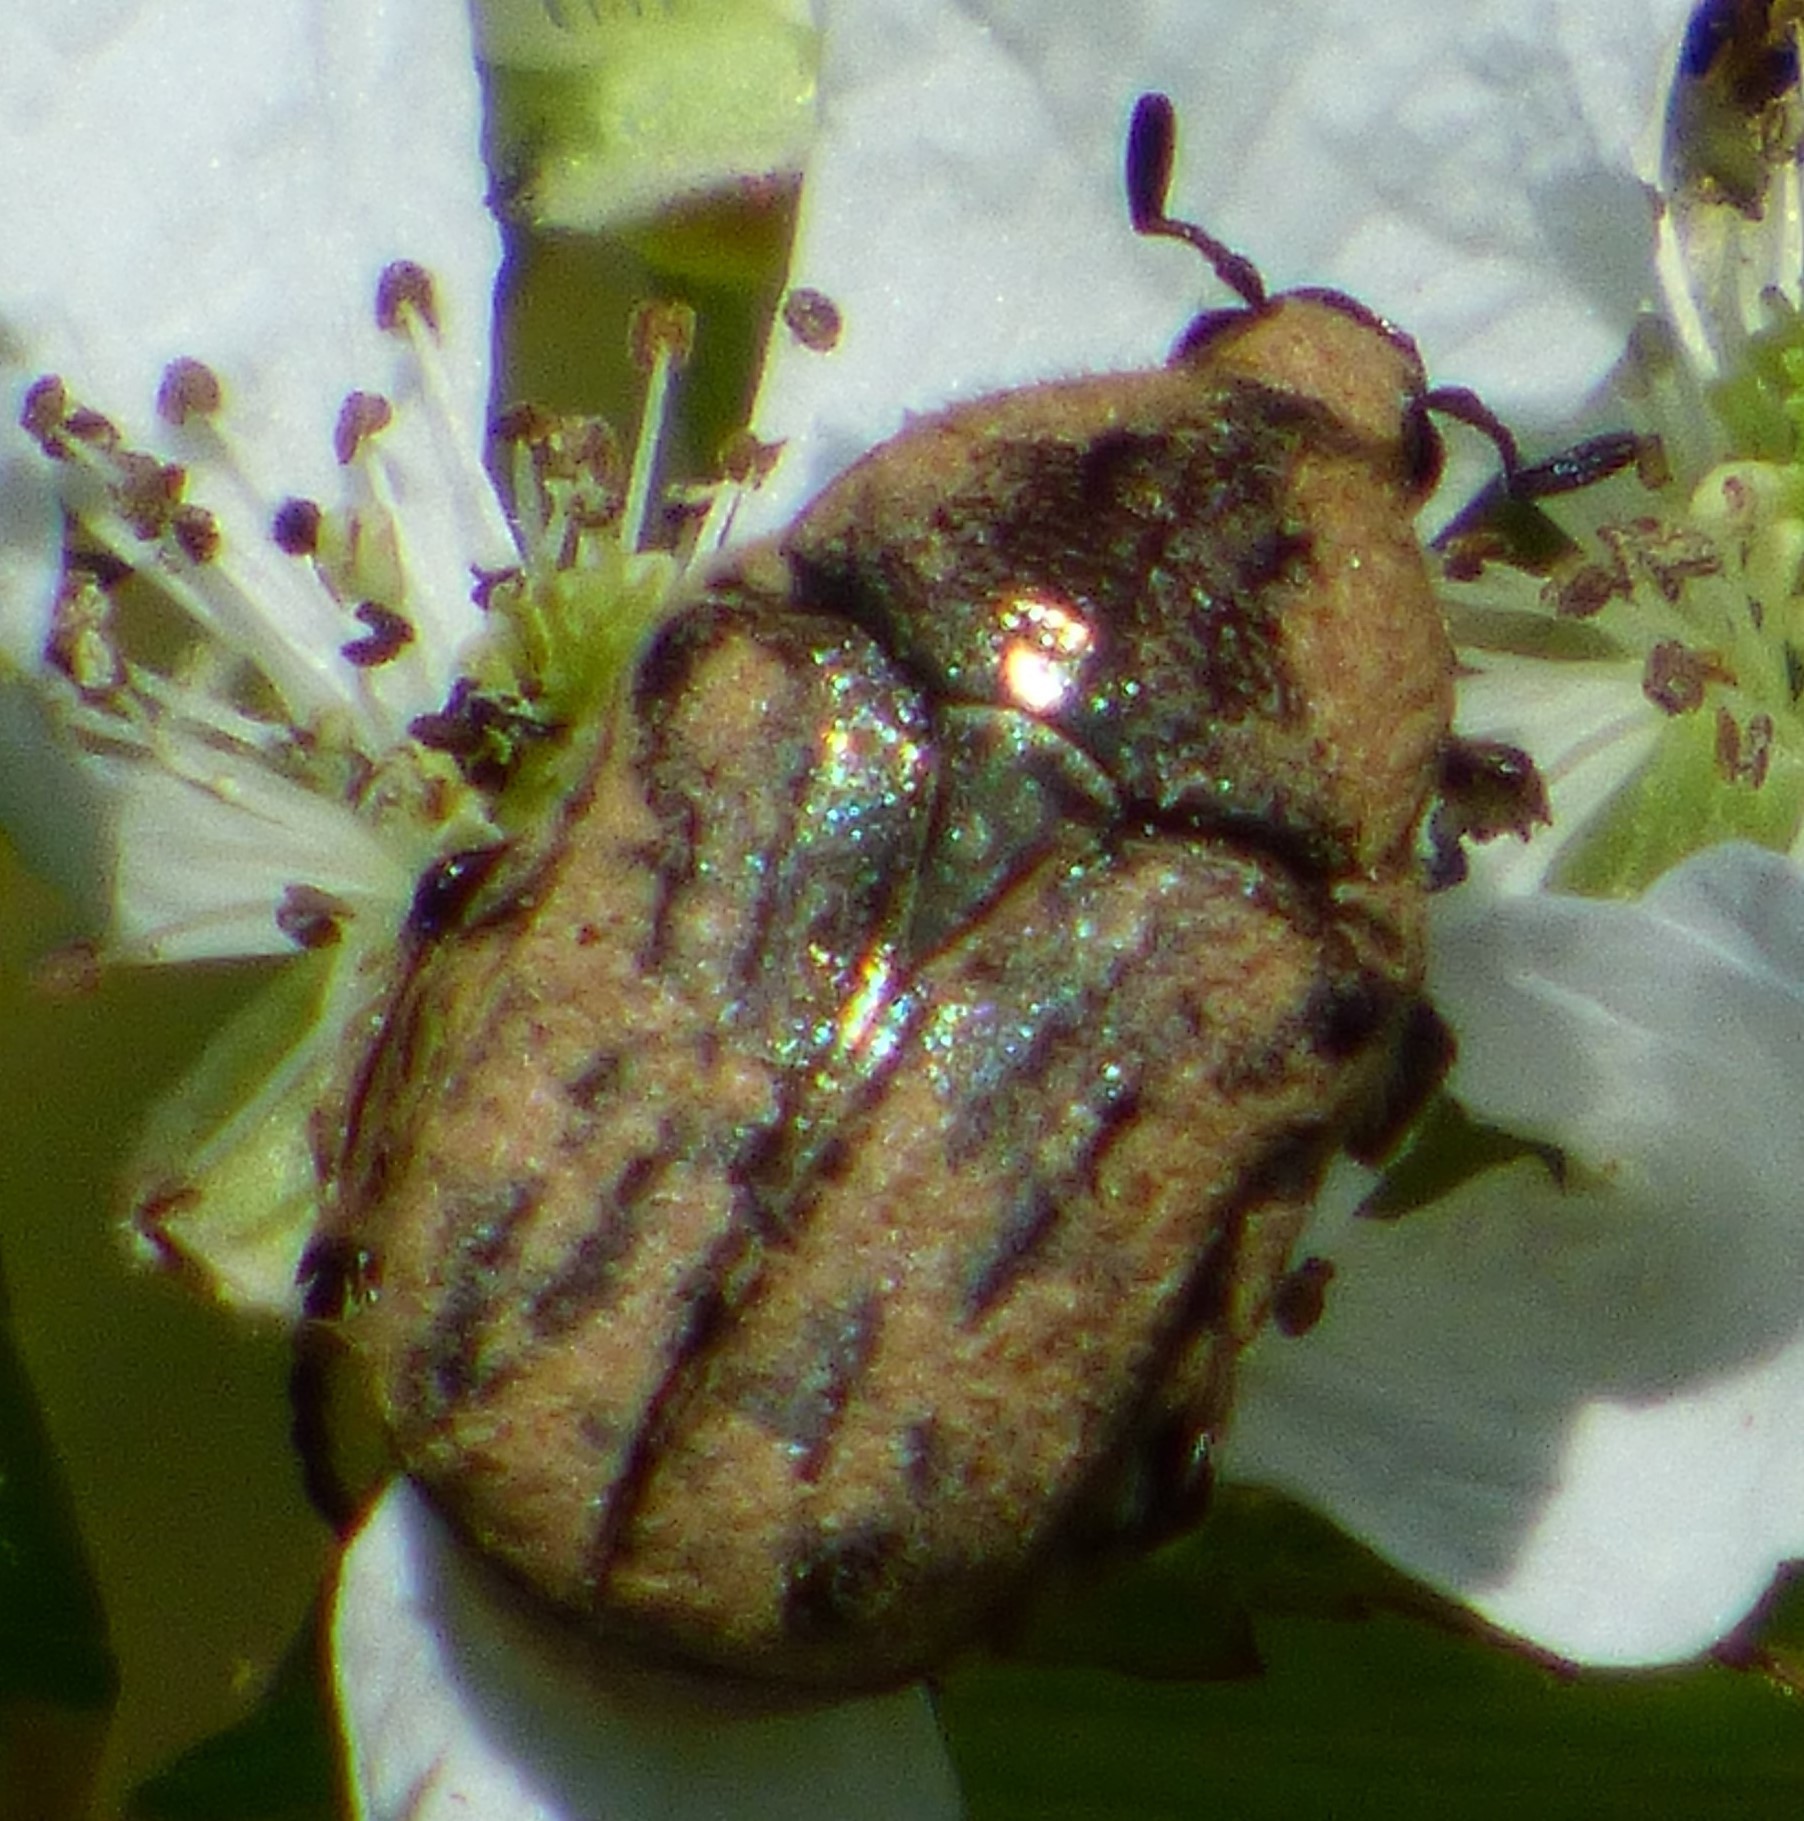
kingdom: Animalia
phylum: Arthropoda
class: Insecta
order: Coleoptera
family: Scarabaeidae
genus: Euphoria
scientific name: Euphoria sepulcralis
